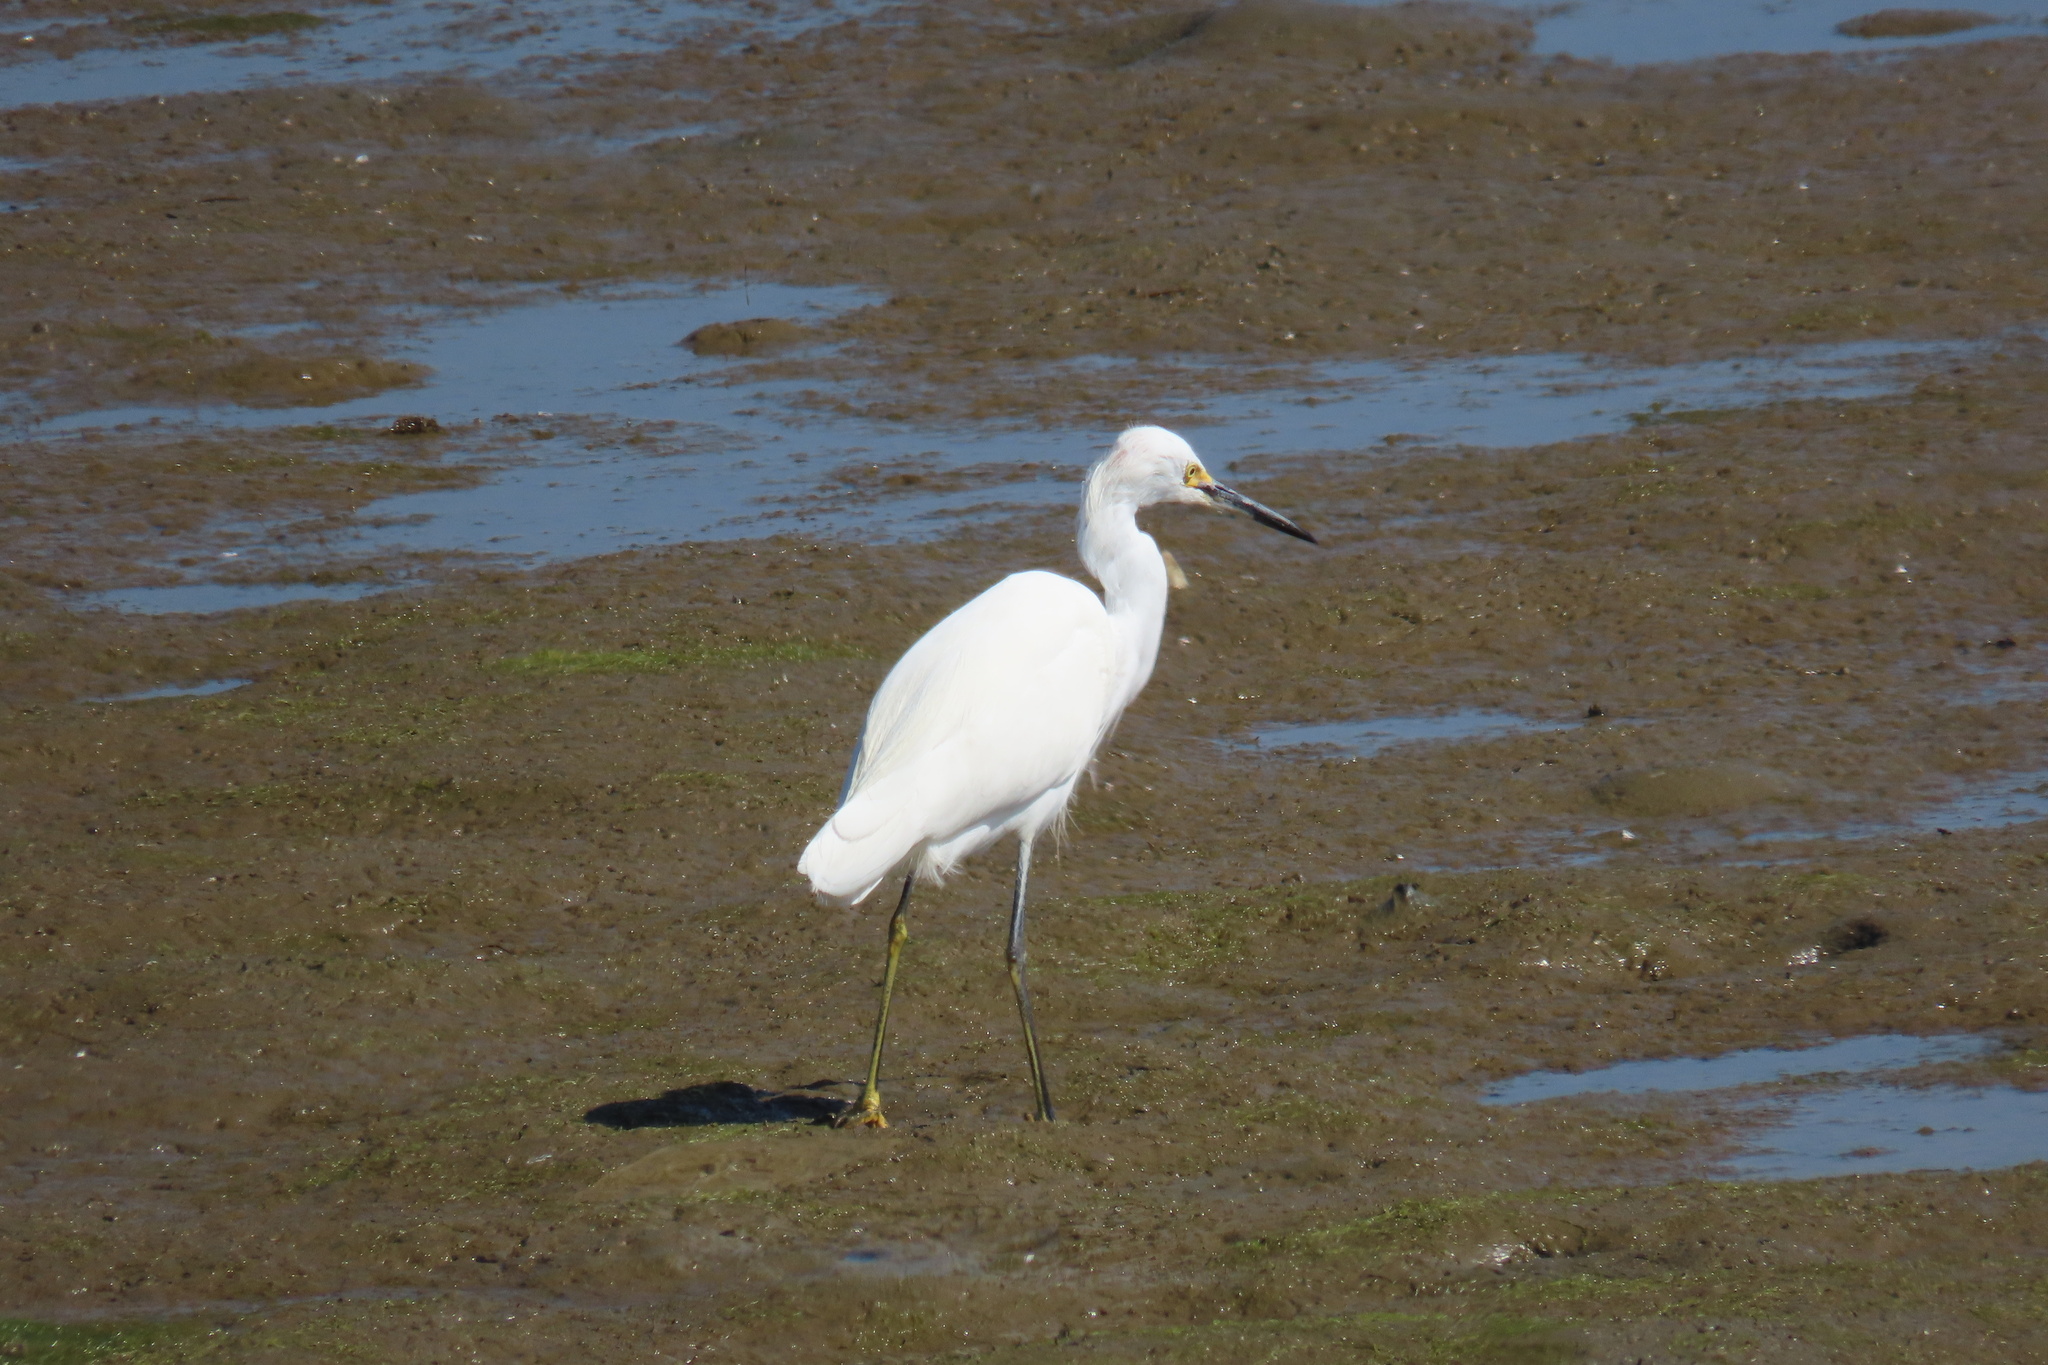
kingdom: Animalia
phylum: Chordata
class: Aves
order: Pelecaniformes
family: Ardeidae
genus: Egretta
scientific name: Egretta thula
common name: Snowy egret
